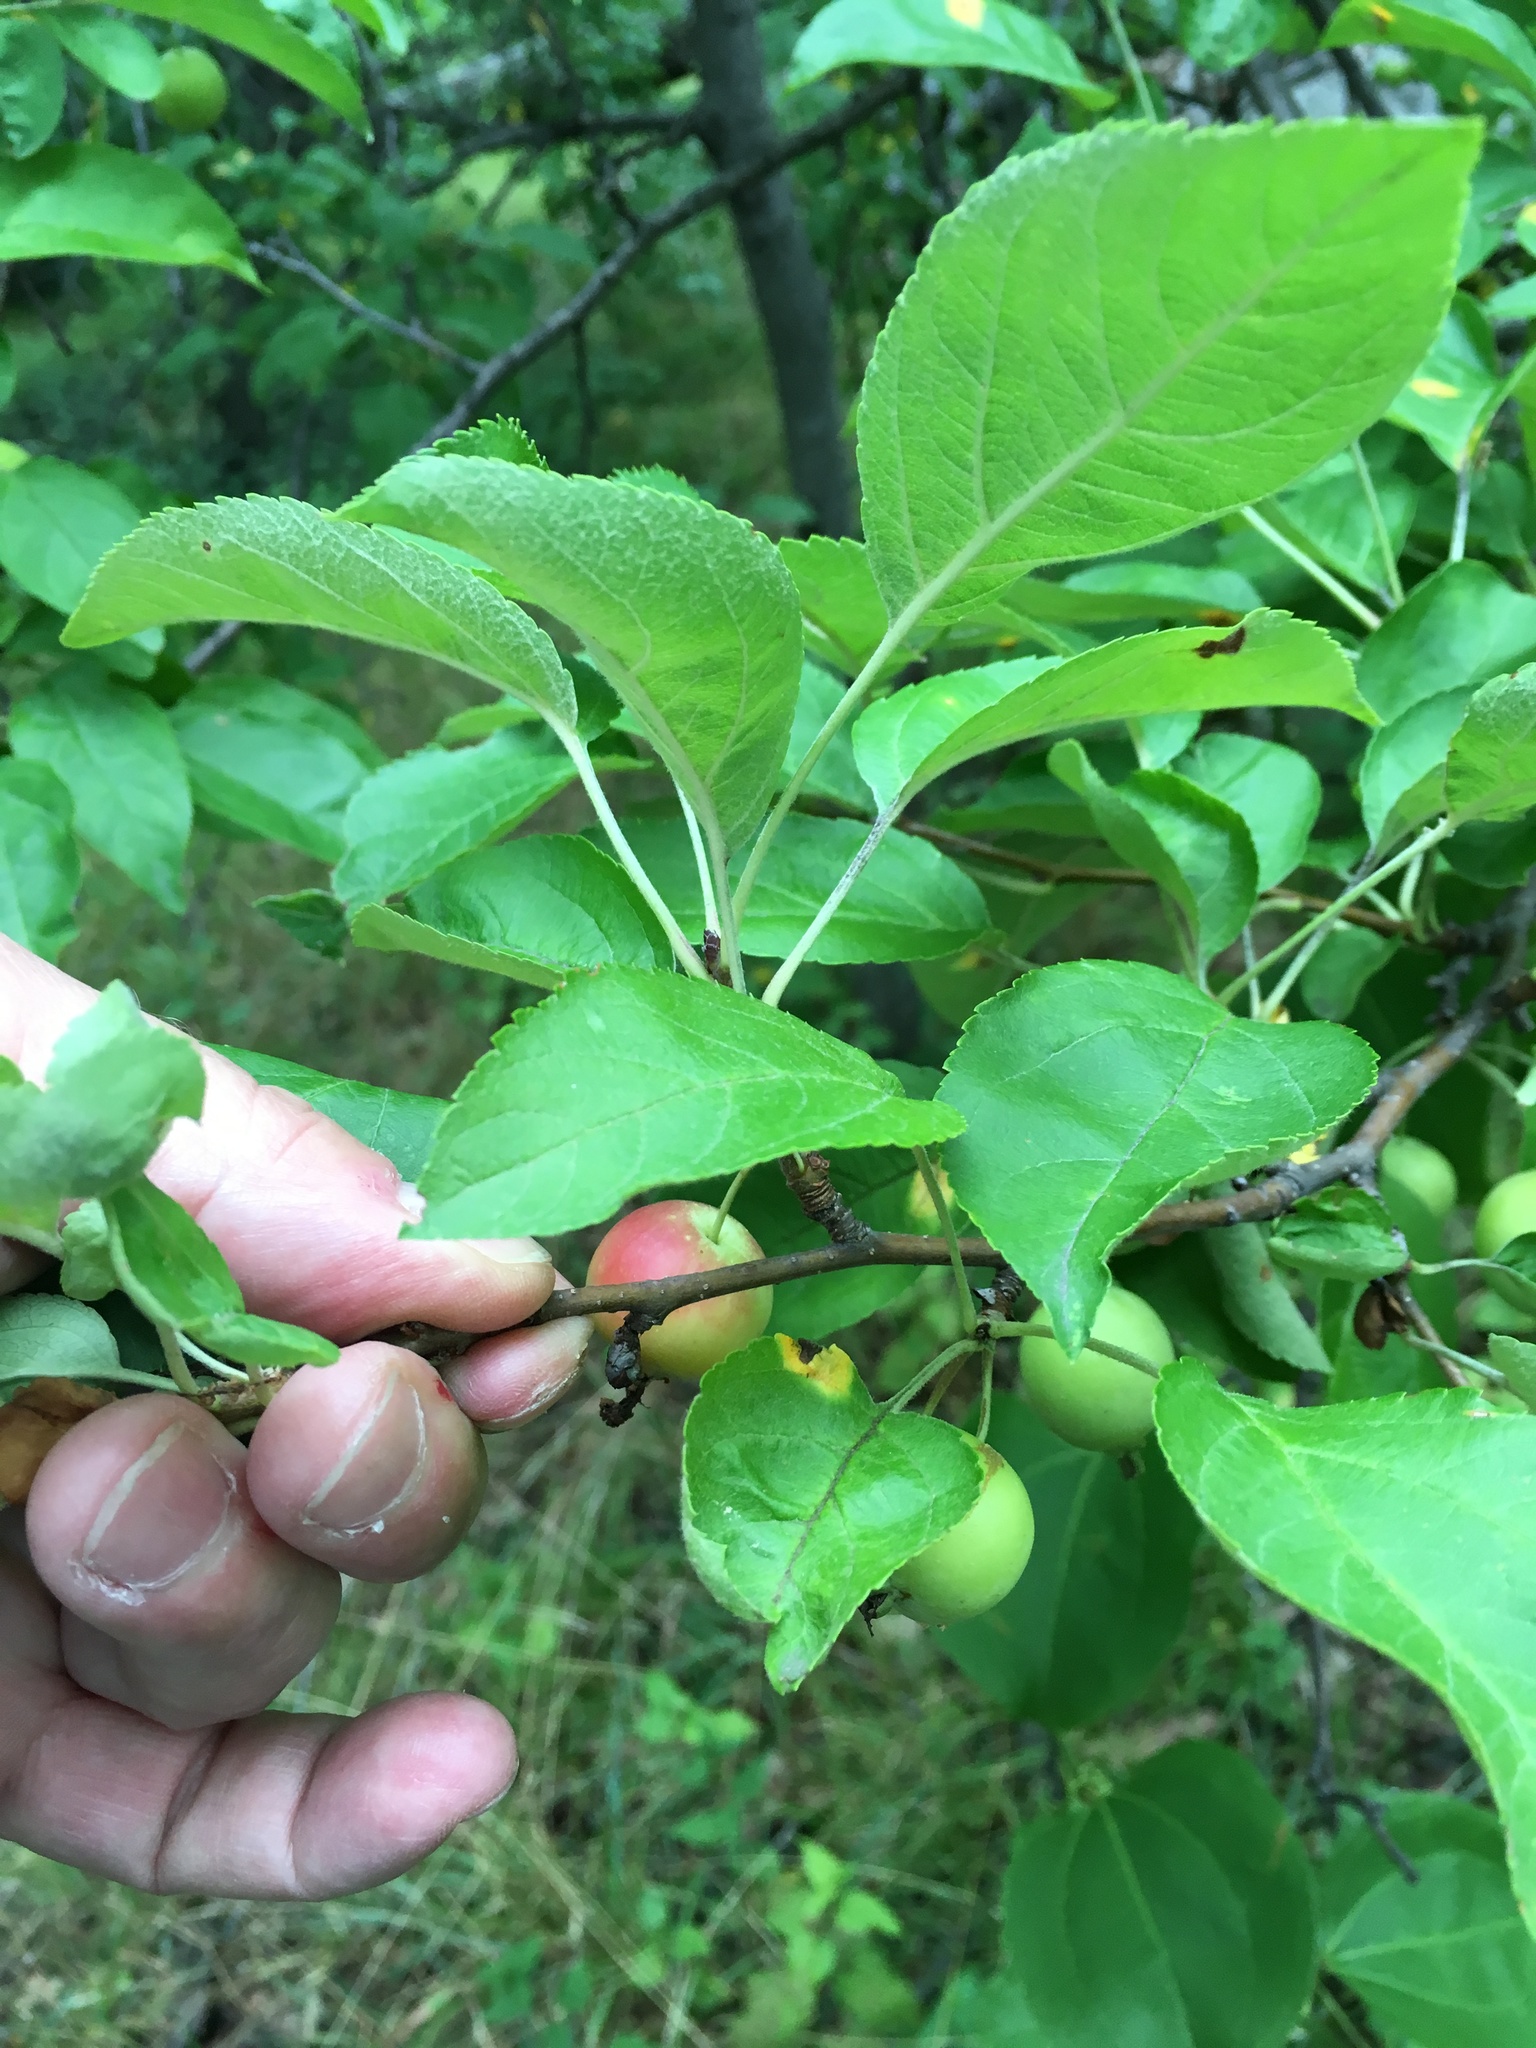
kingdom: Plantae
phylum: Tracheophyta
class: Magnoliopsida
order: Rosales
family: Rosaceae
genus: Malus
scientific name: Malus
